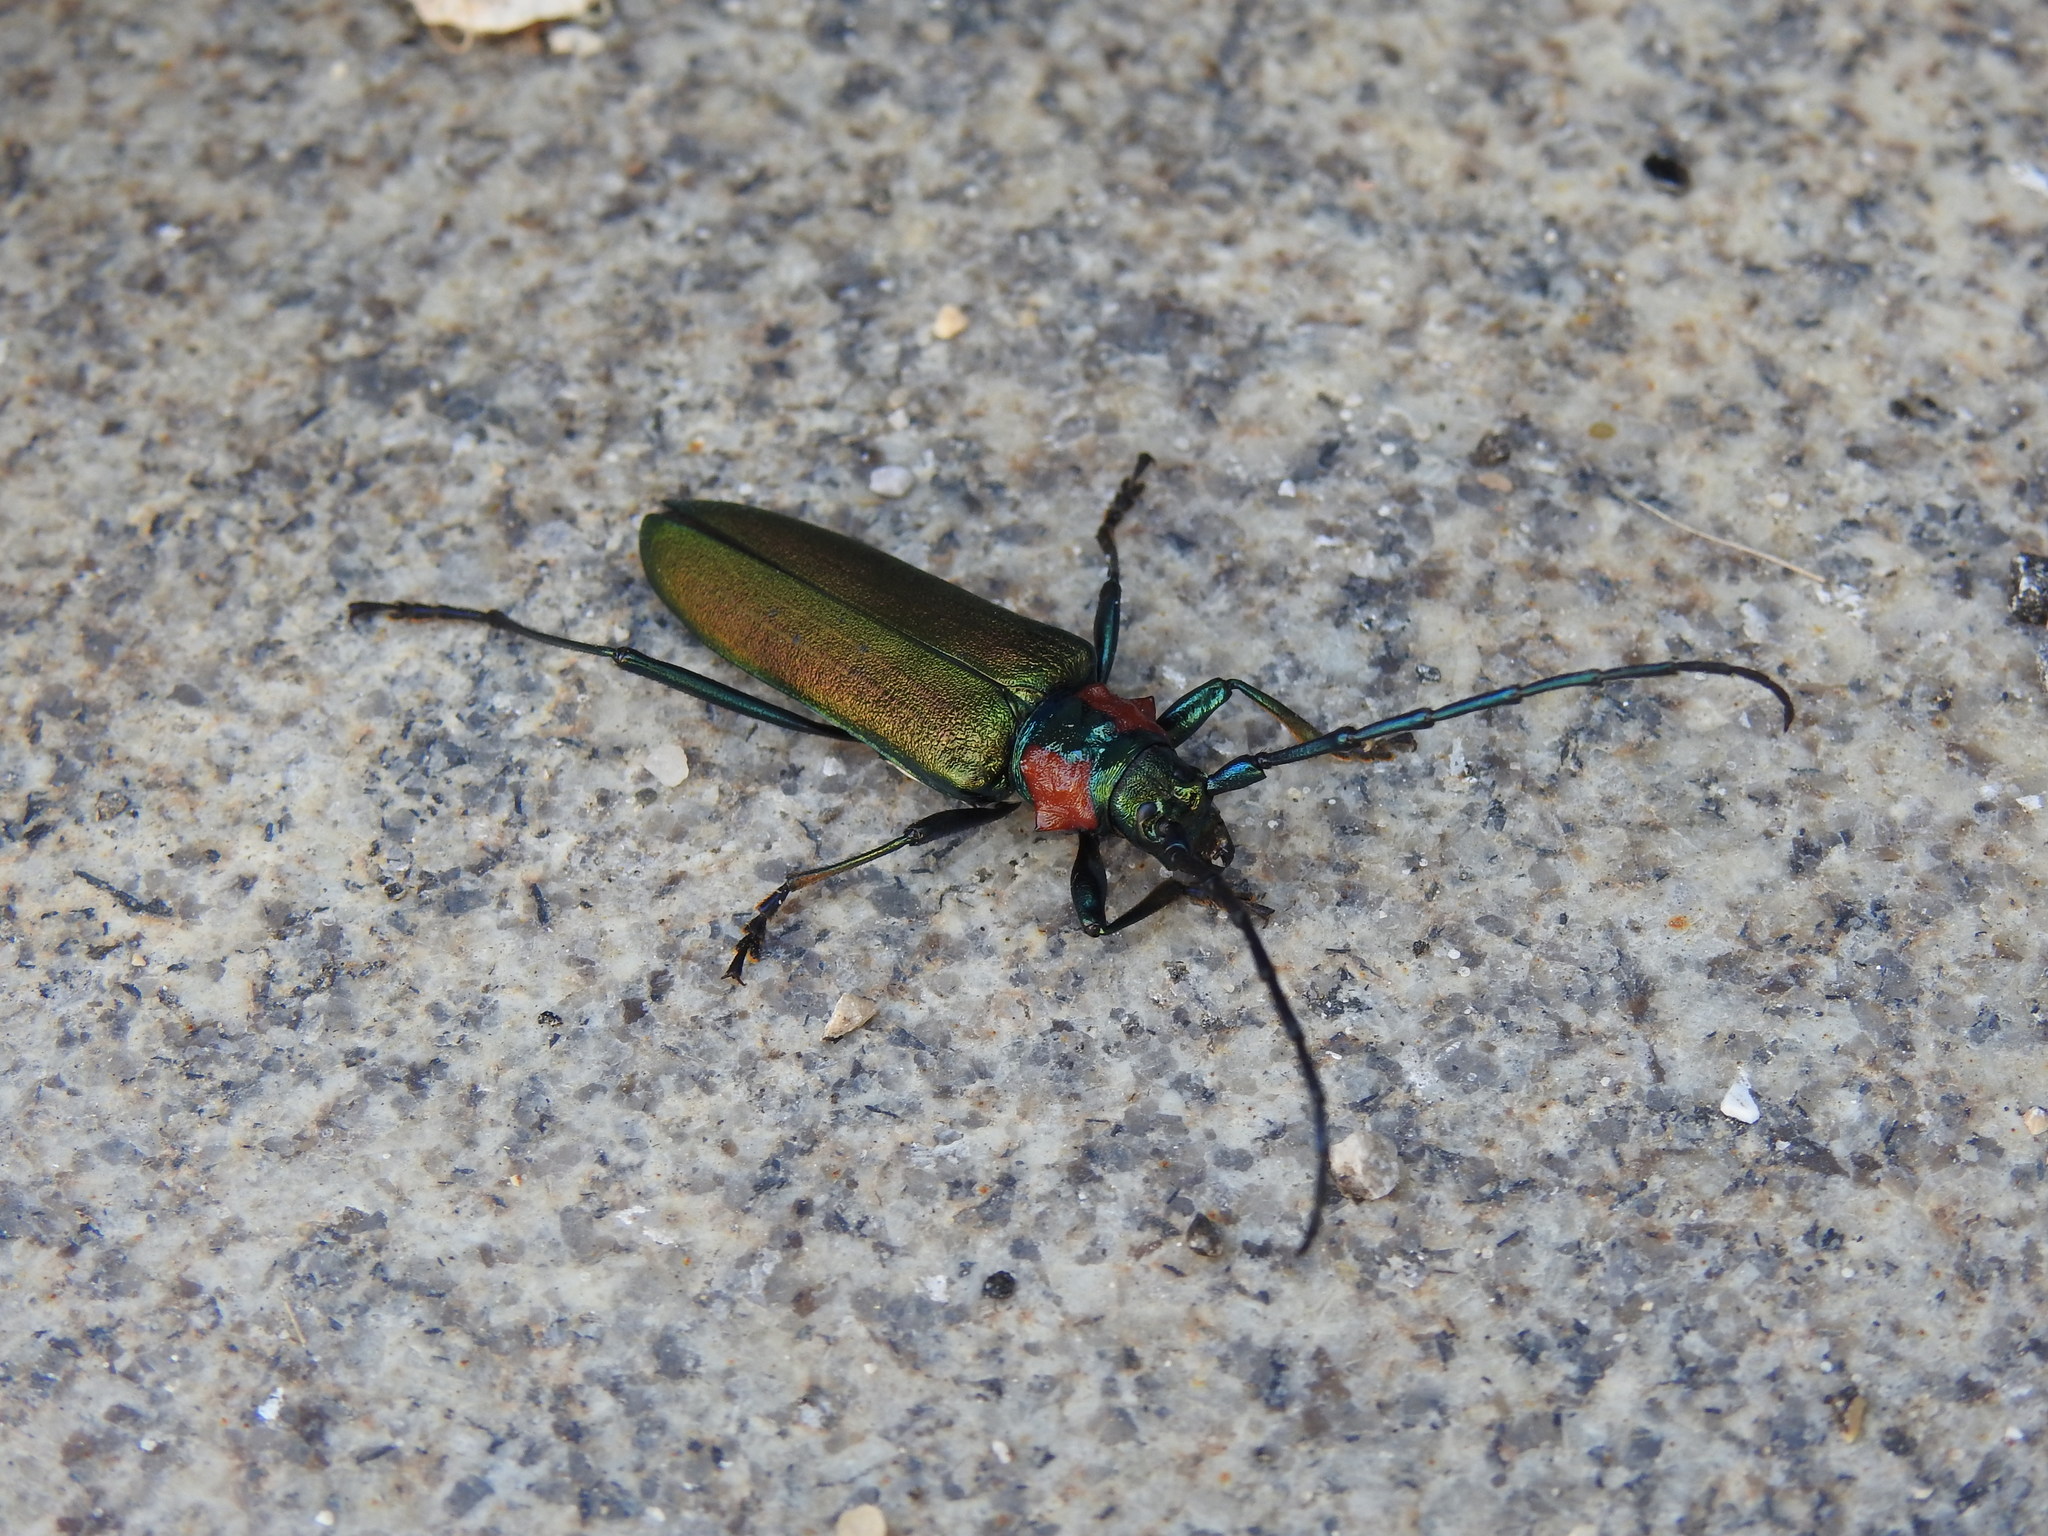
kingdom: Animalia
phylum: Arthropoda
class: Insecta
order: Coleoptera
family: Cerambycidae
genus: Aromia
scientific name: Aromia moschata
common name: Musk beetle
